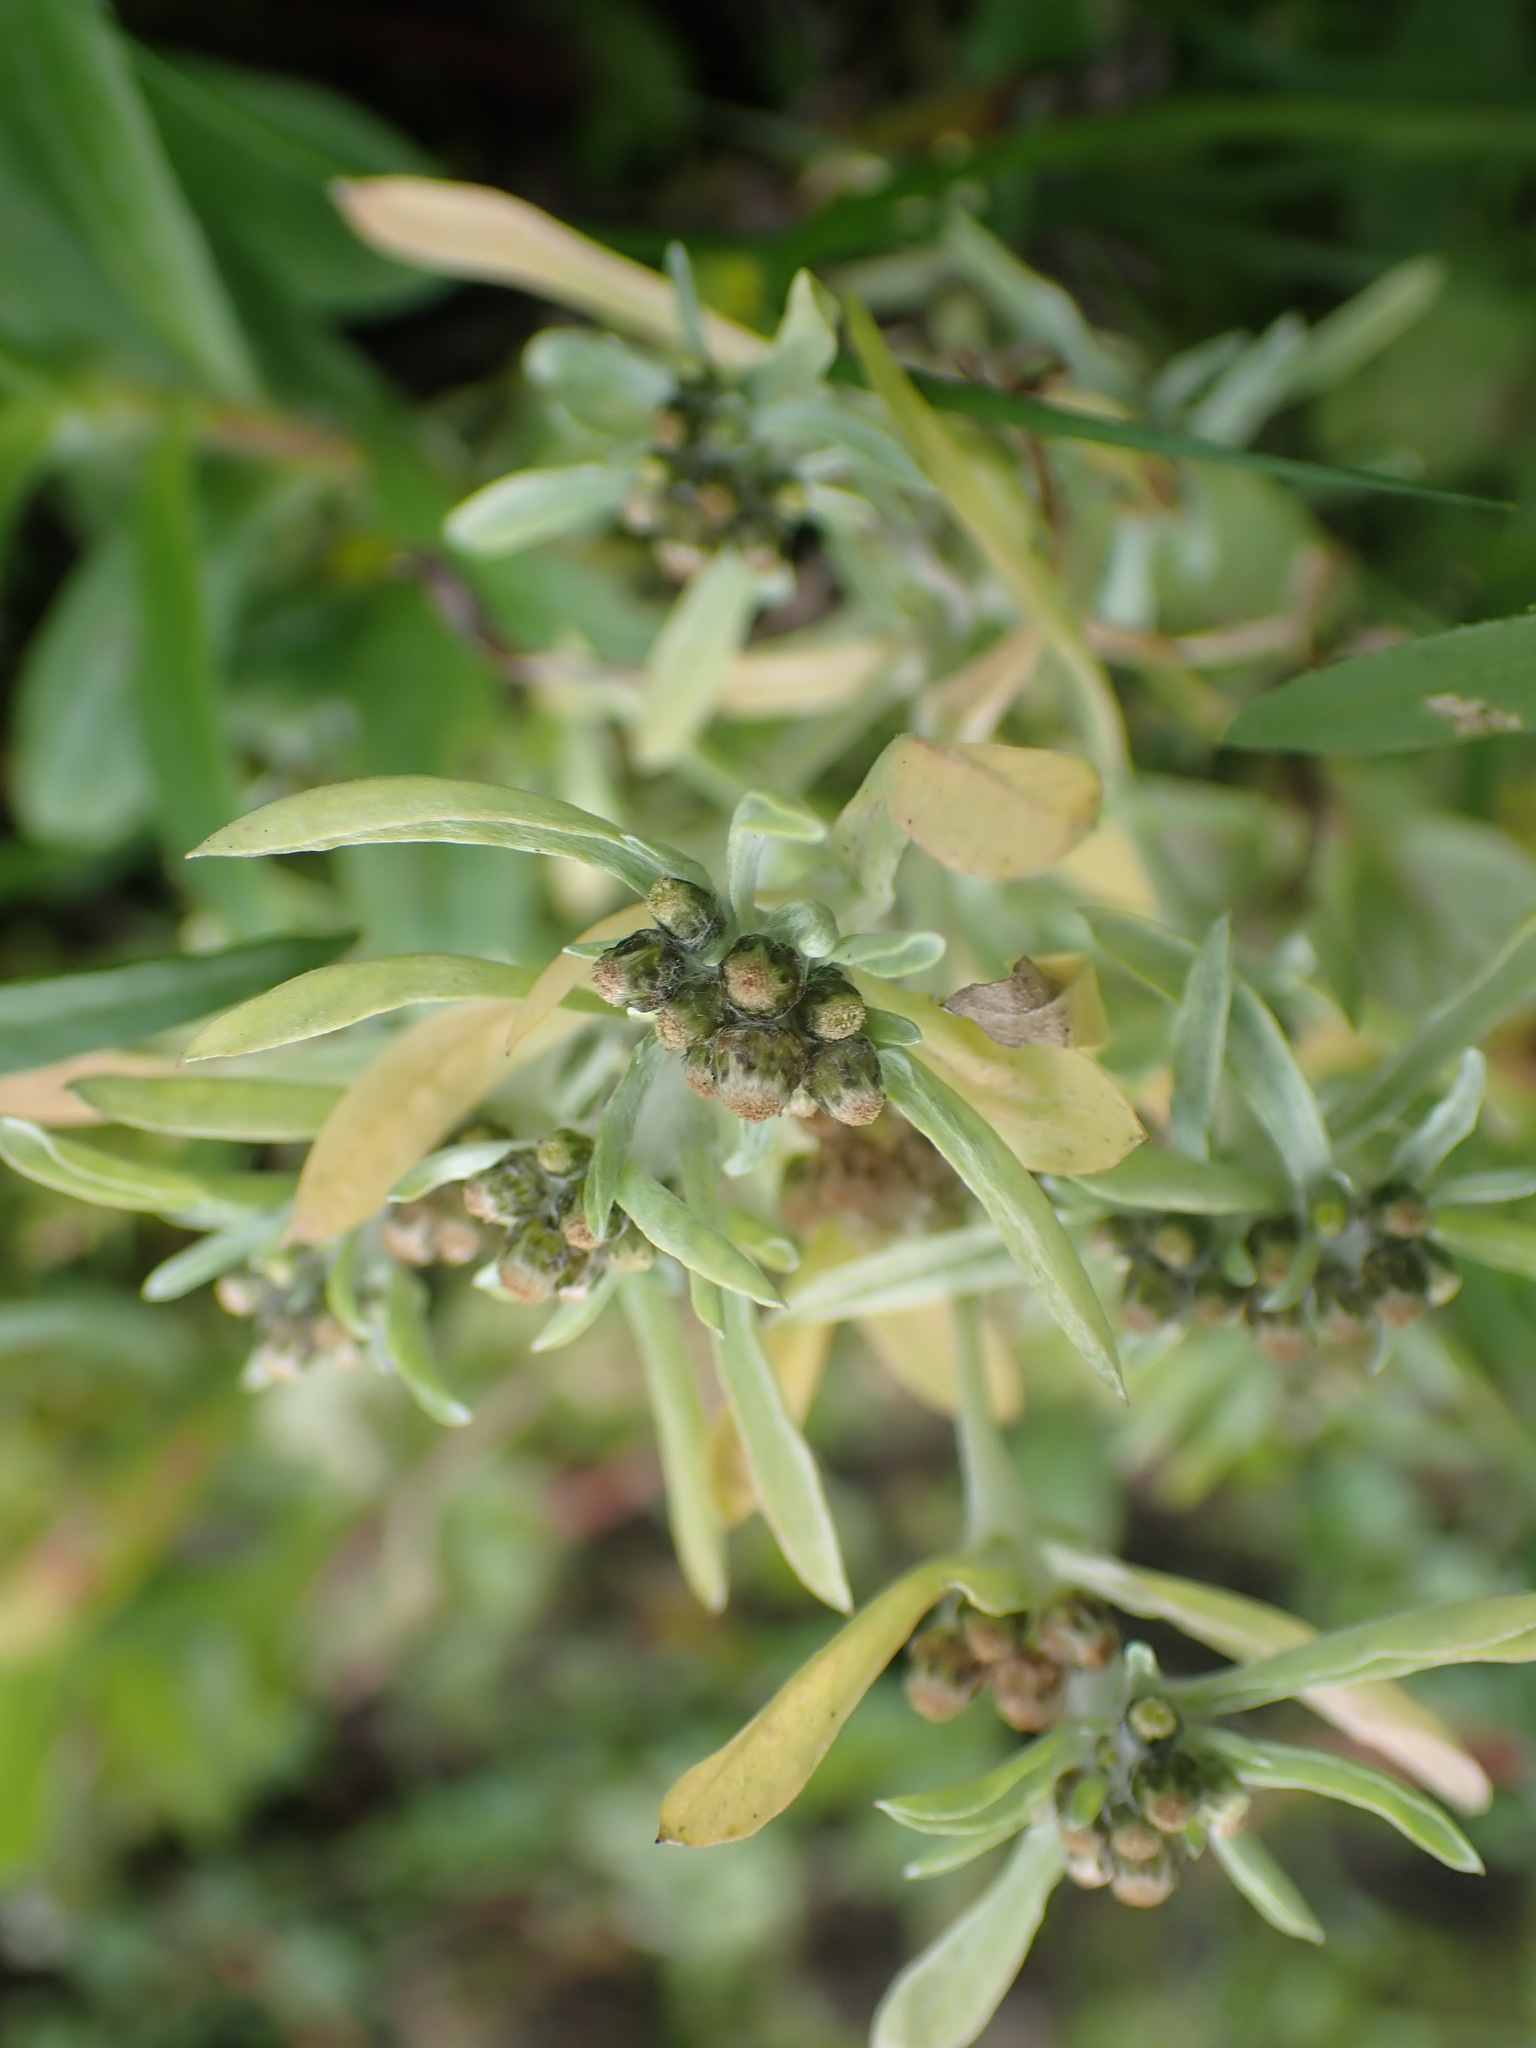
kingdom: Plantae
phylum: Tracheophyta
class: Magnoliopsida
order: Asterales
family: Asteraceae
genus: Gnaphalium
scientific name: Gnaphalium uliginosum
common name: Marsh cudweed
